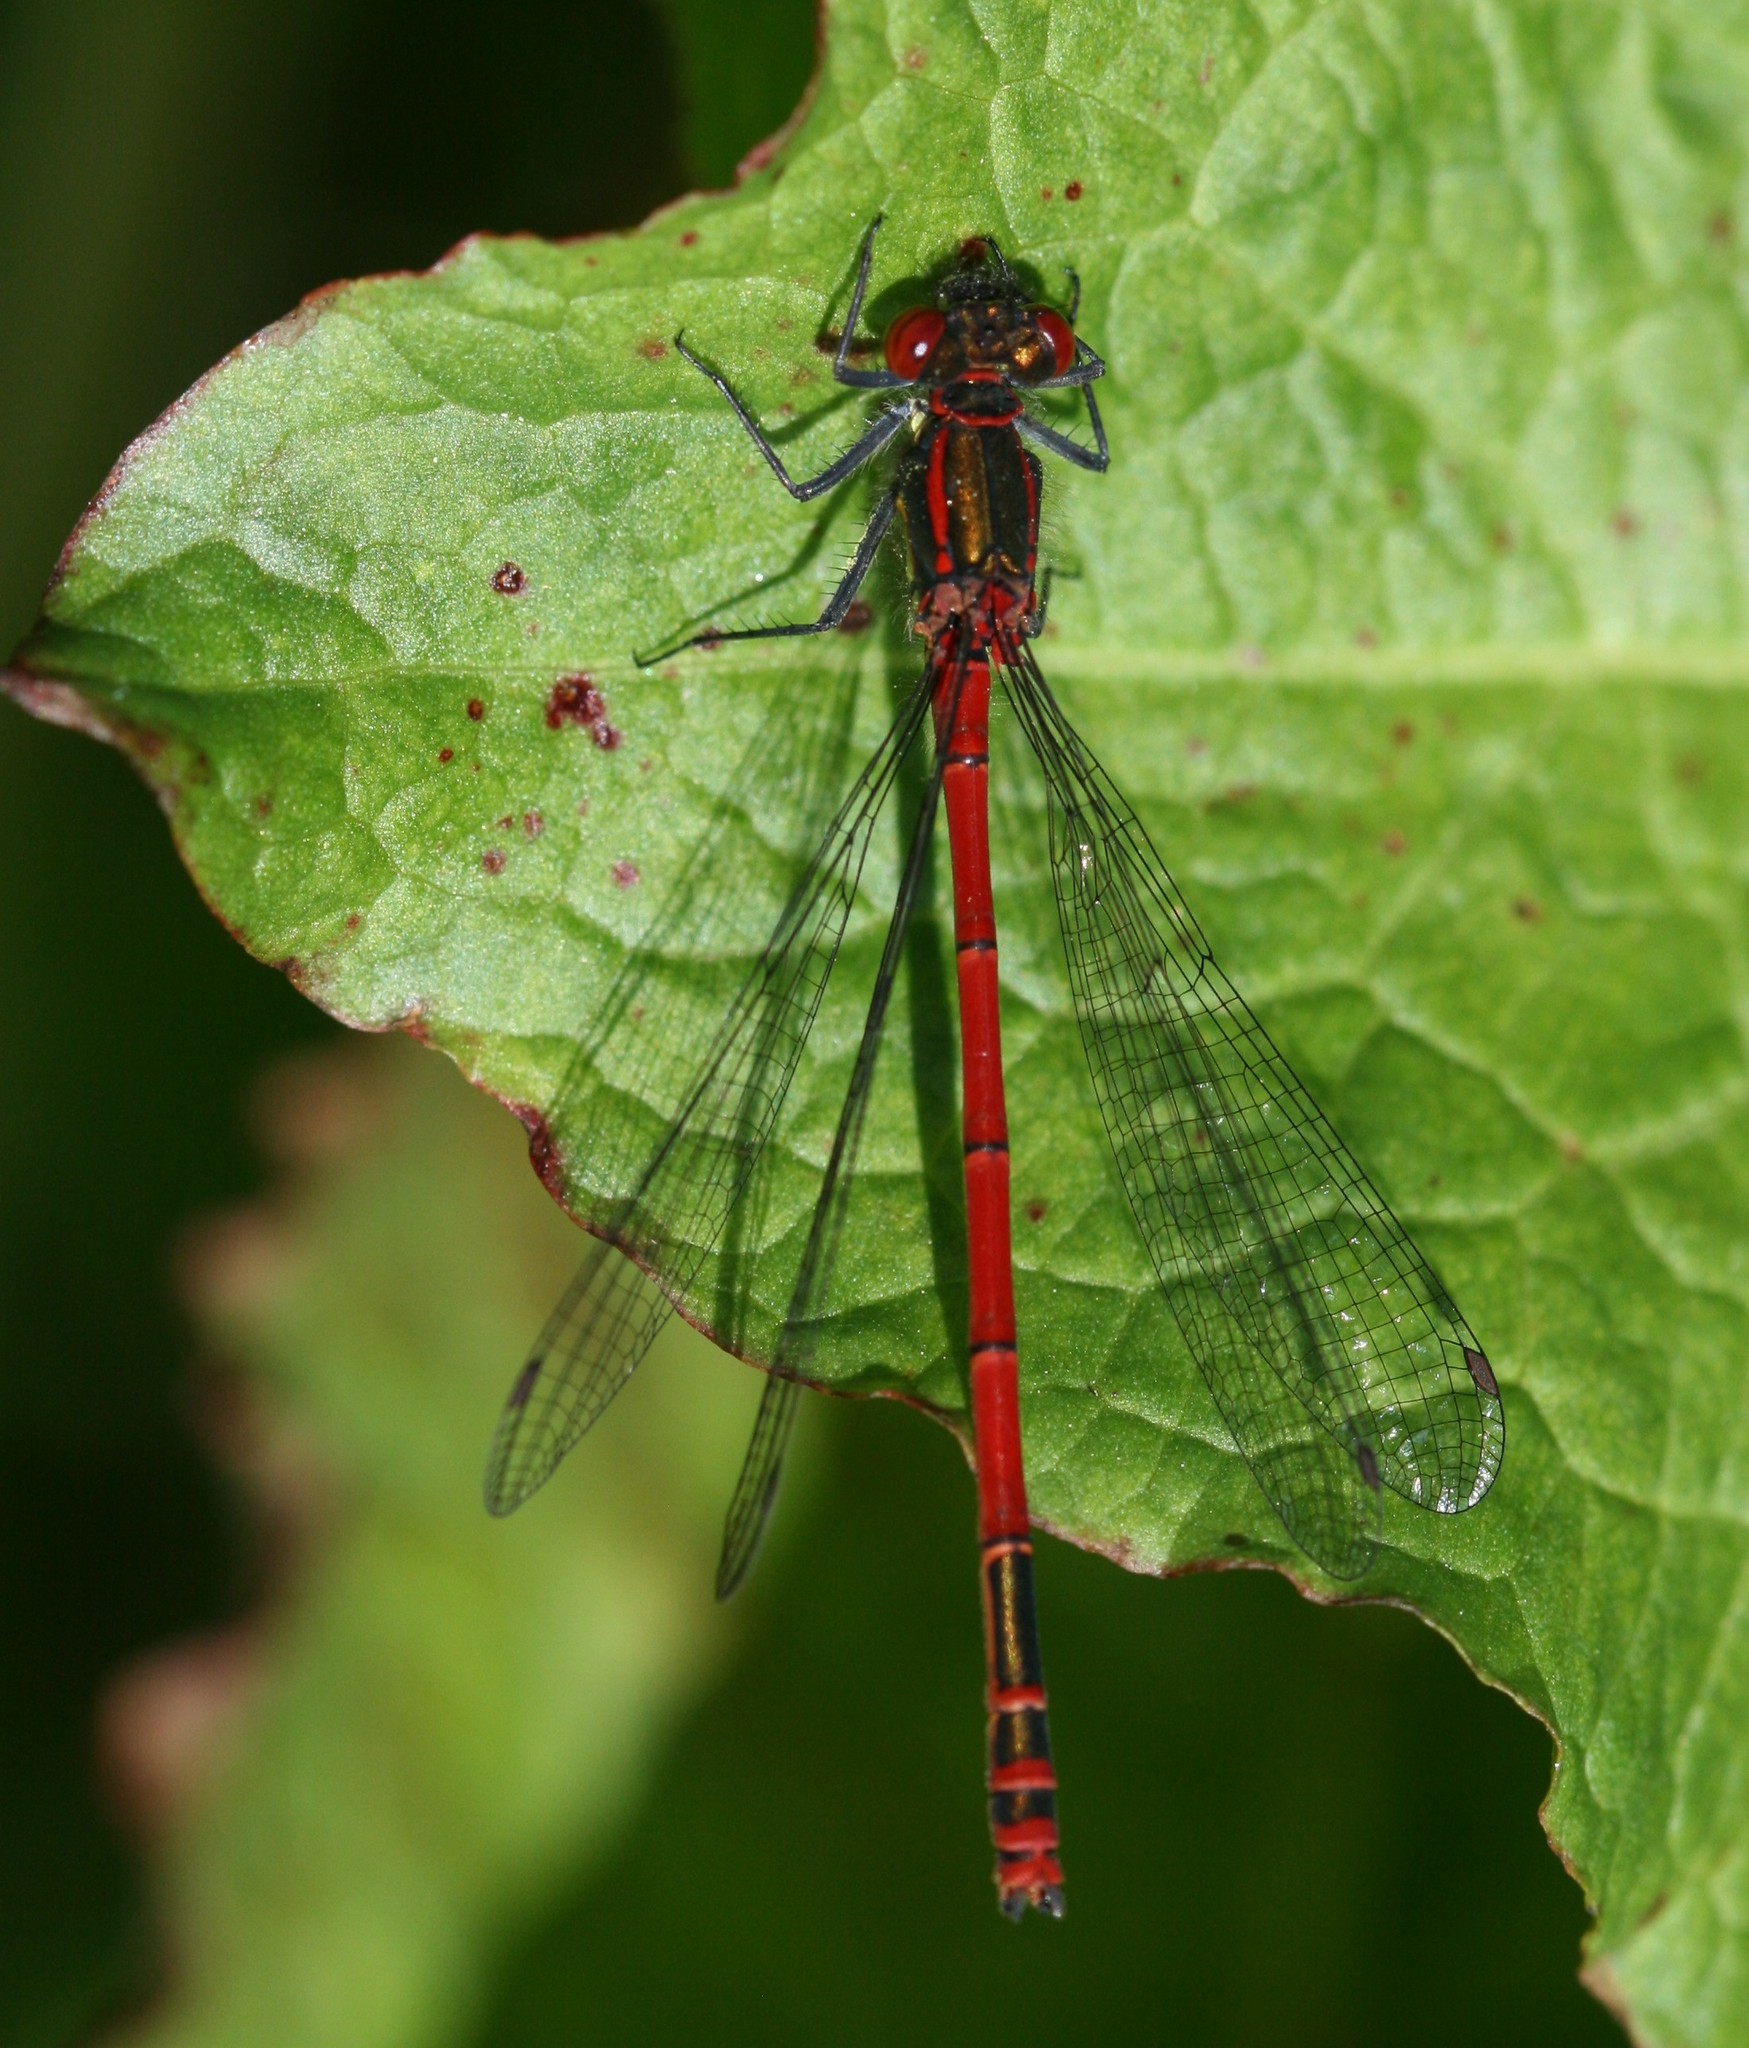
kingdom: Animalia
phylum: Arthropoda
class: Insecta
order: Odonata
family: Coenagrionidae
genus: Pyrrhosoma
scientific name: Pyrrhosoma nymphula
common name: Large red damsel
